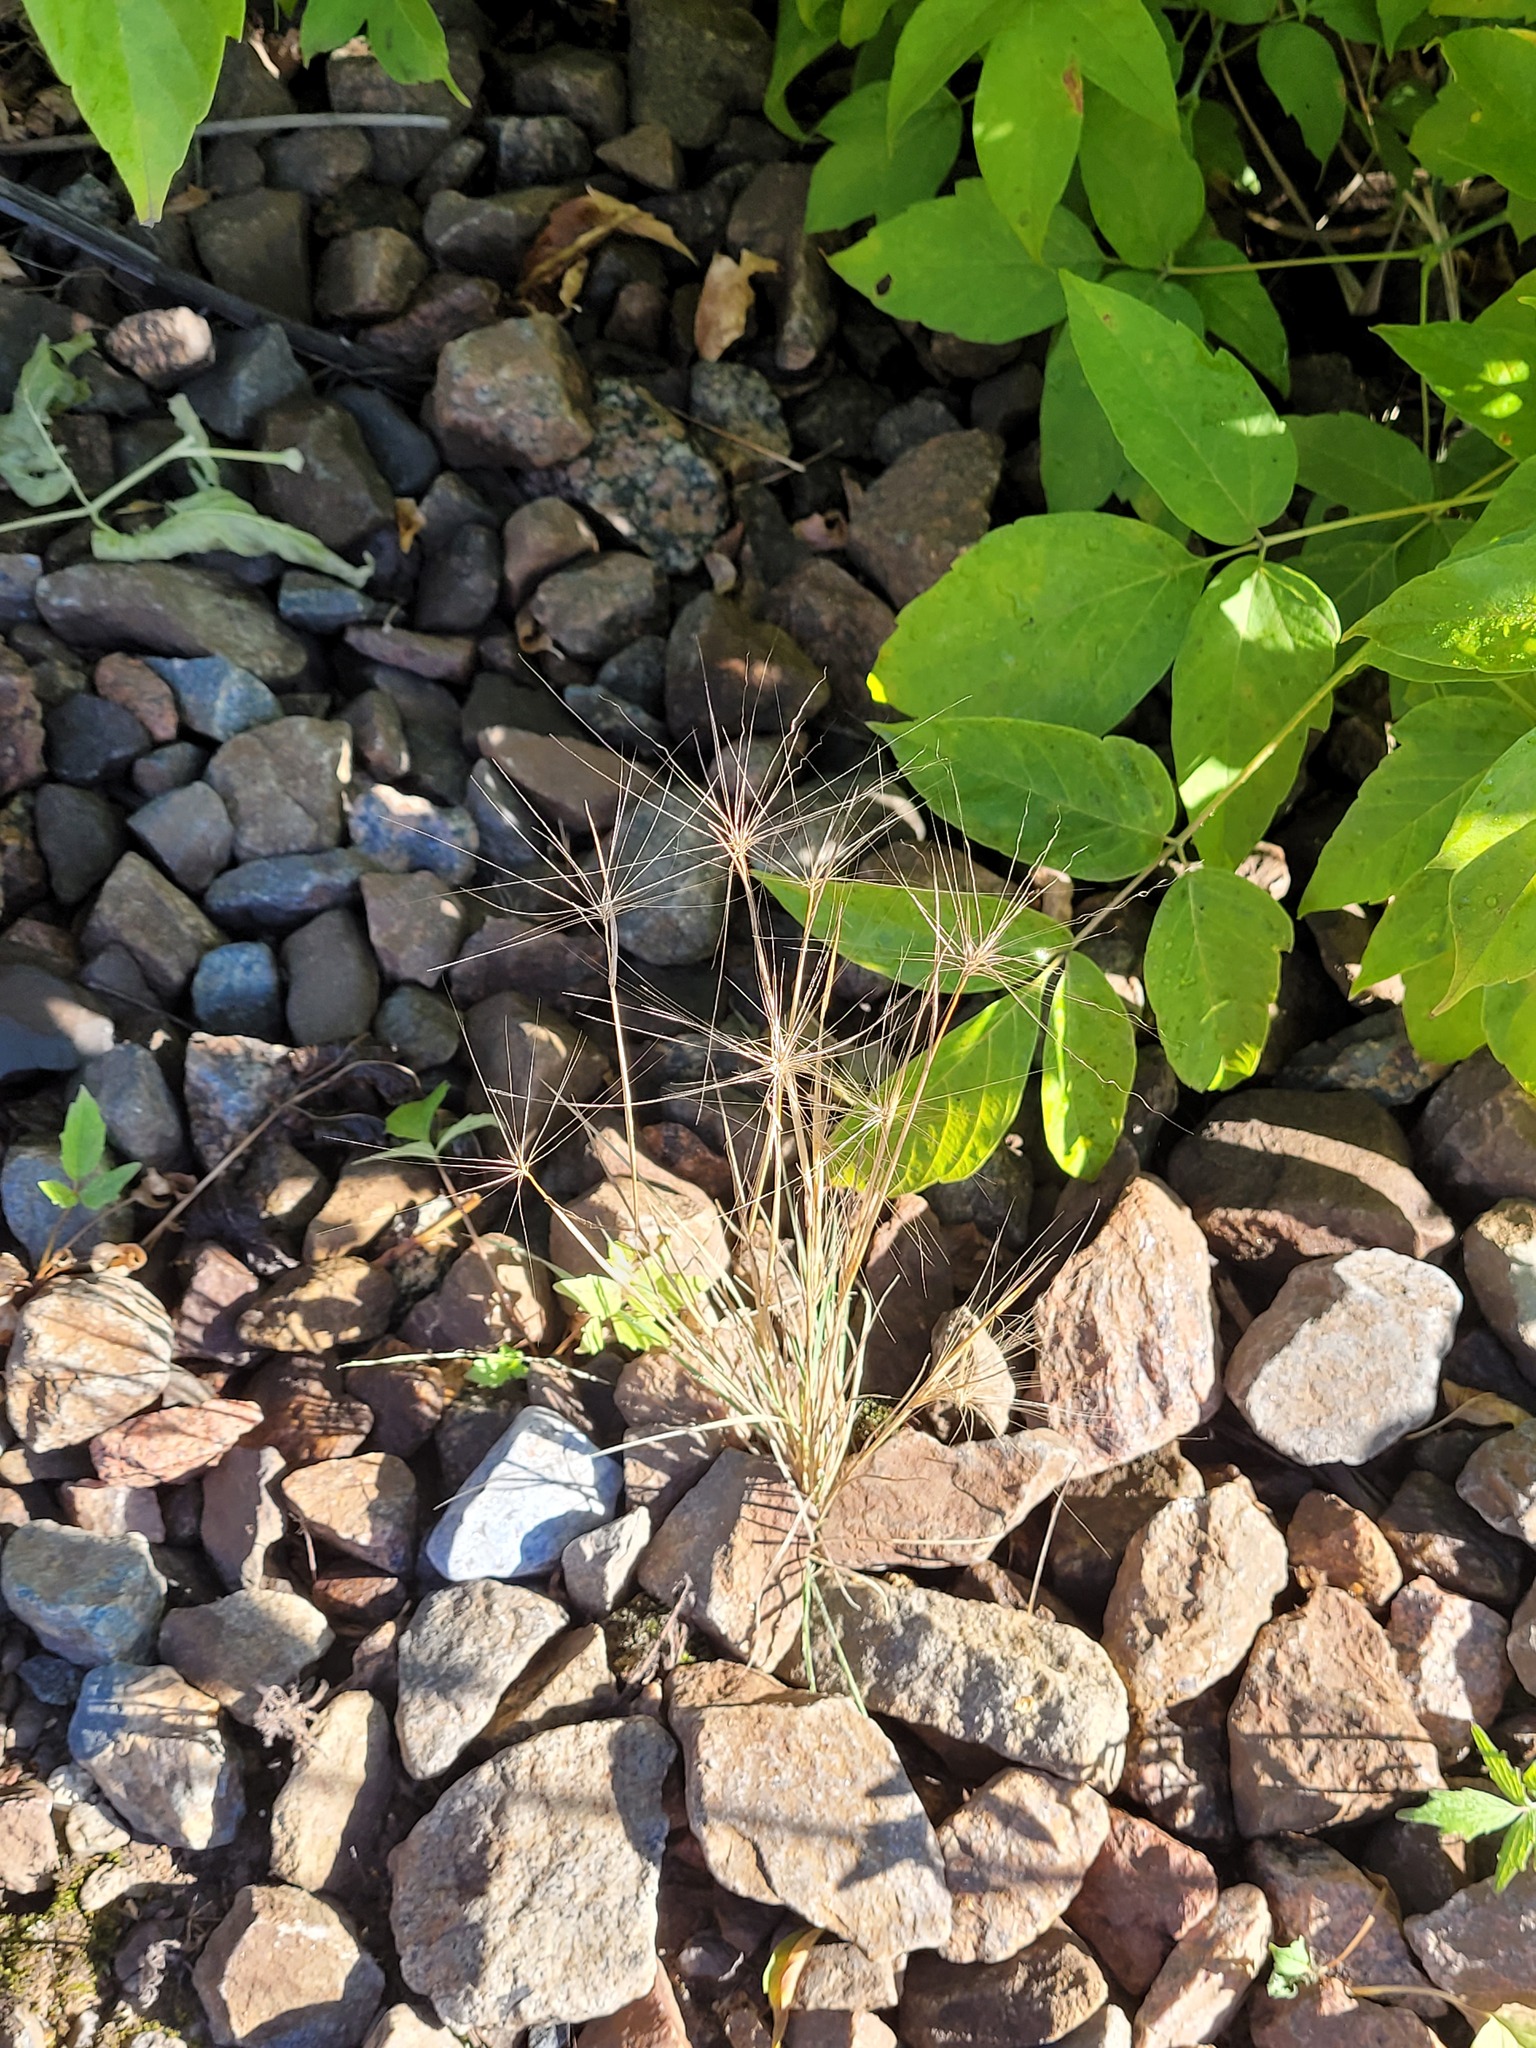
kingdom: Plantae
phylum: Tracheophyta
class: Liliopsida
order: Poales
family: Poaceae
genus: Hordeum
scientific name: Hordeum jubatum
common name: Foxtail barley
